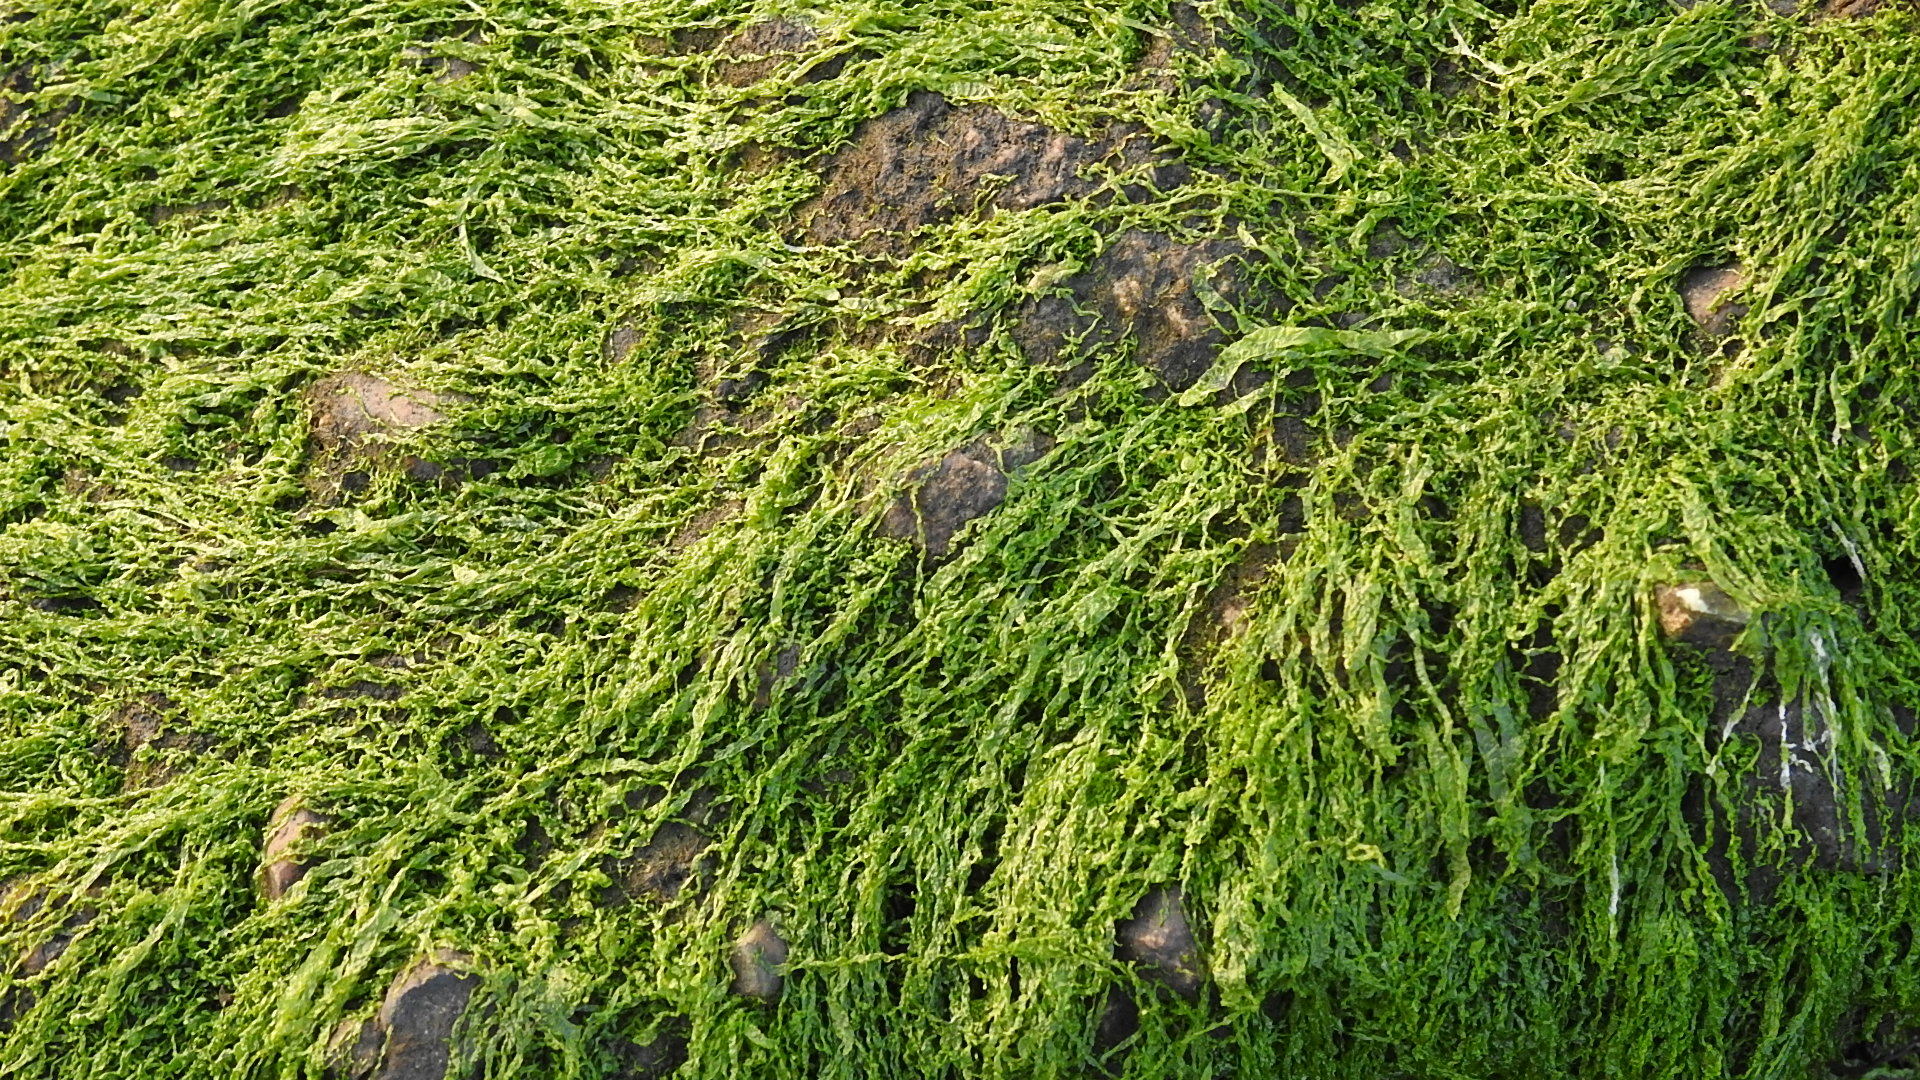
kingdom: Plantae
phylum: Chlorophyta
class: Ulvophyceae
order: Ulvales
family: Ulvaceae
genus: Ulva
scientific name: Ulva intestinalis
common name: Gut weed
